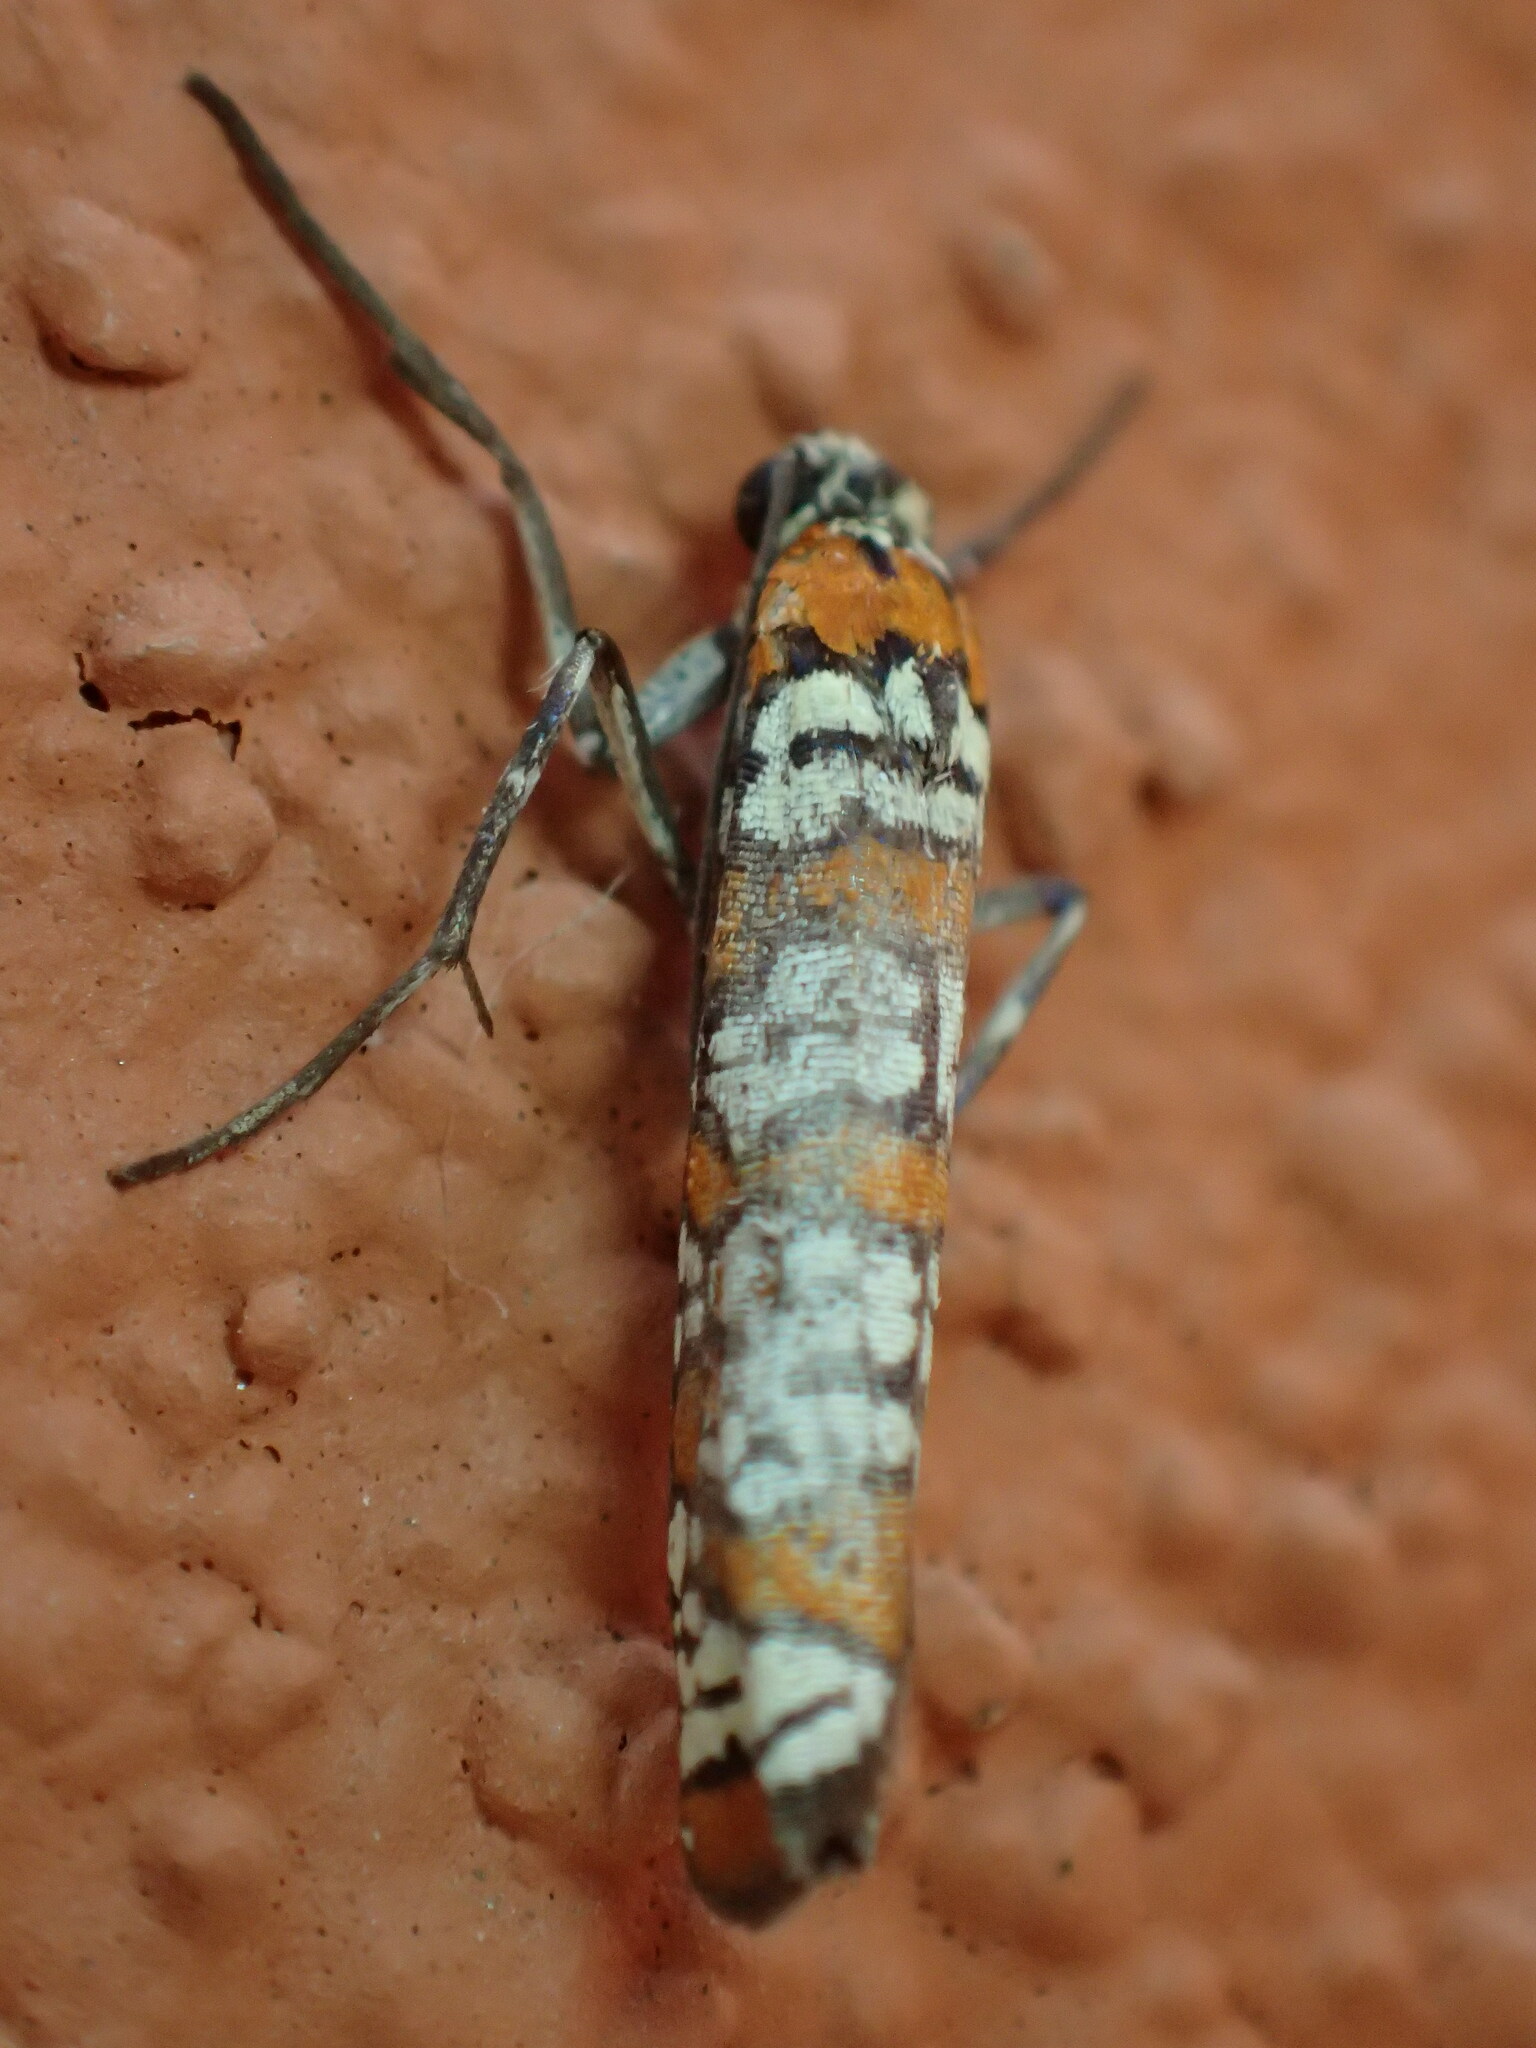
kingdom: Animalia
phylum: Arthropoda
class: Insecta
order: Lepidoptera
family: Attevidae
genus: Atteva
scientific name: Atteva punctella
